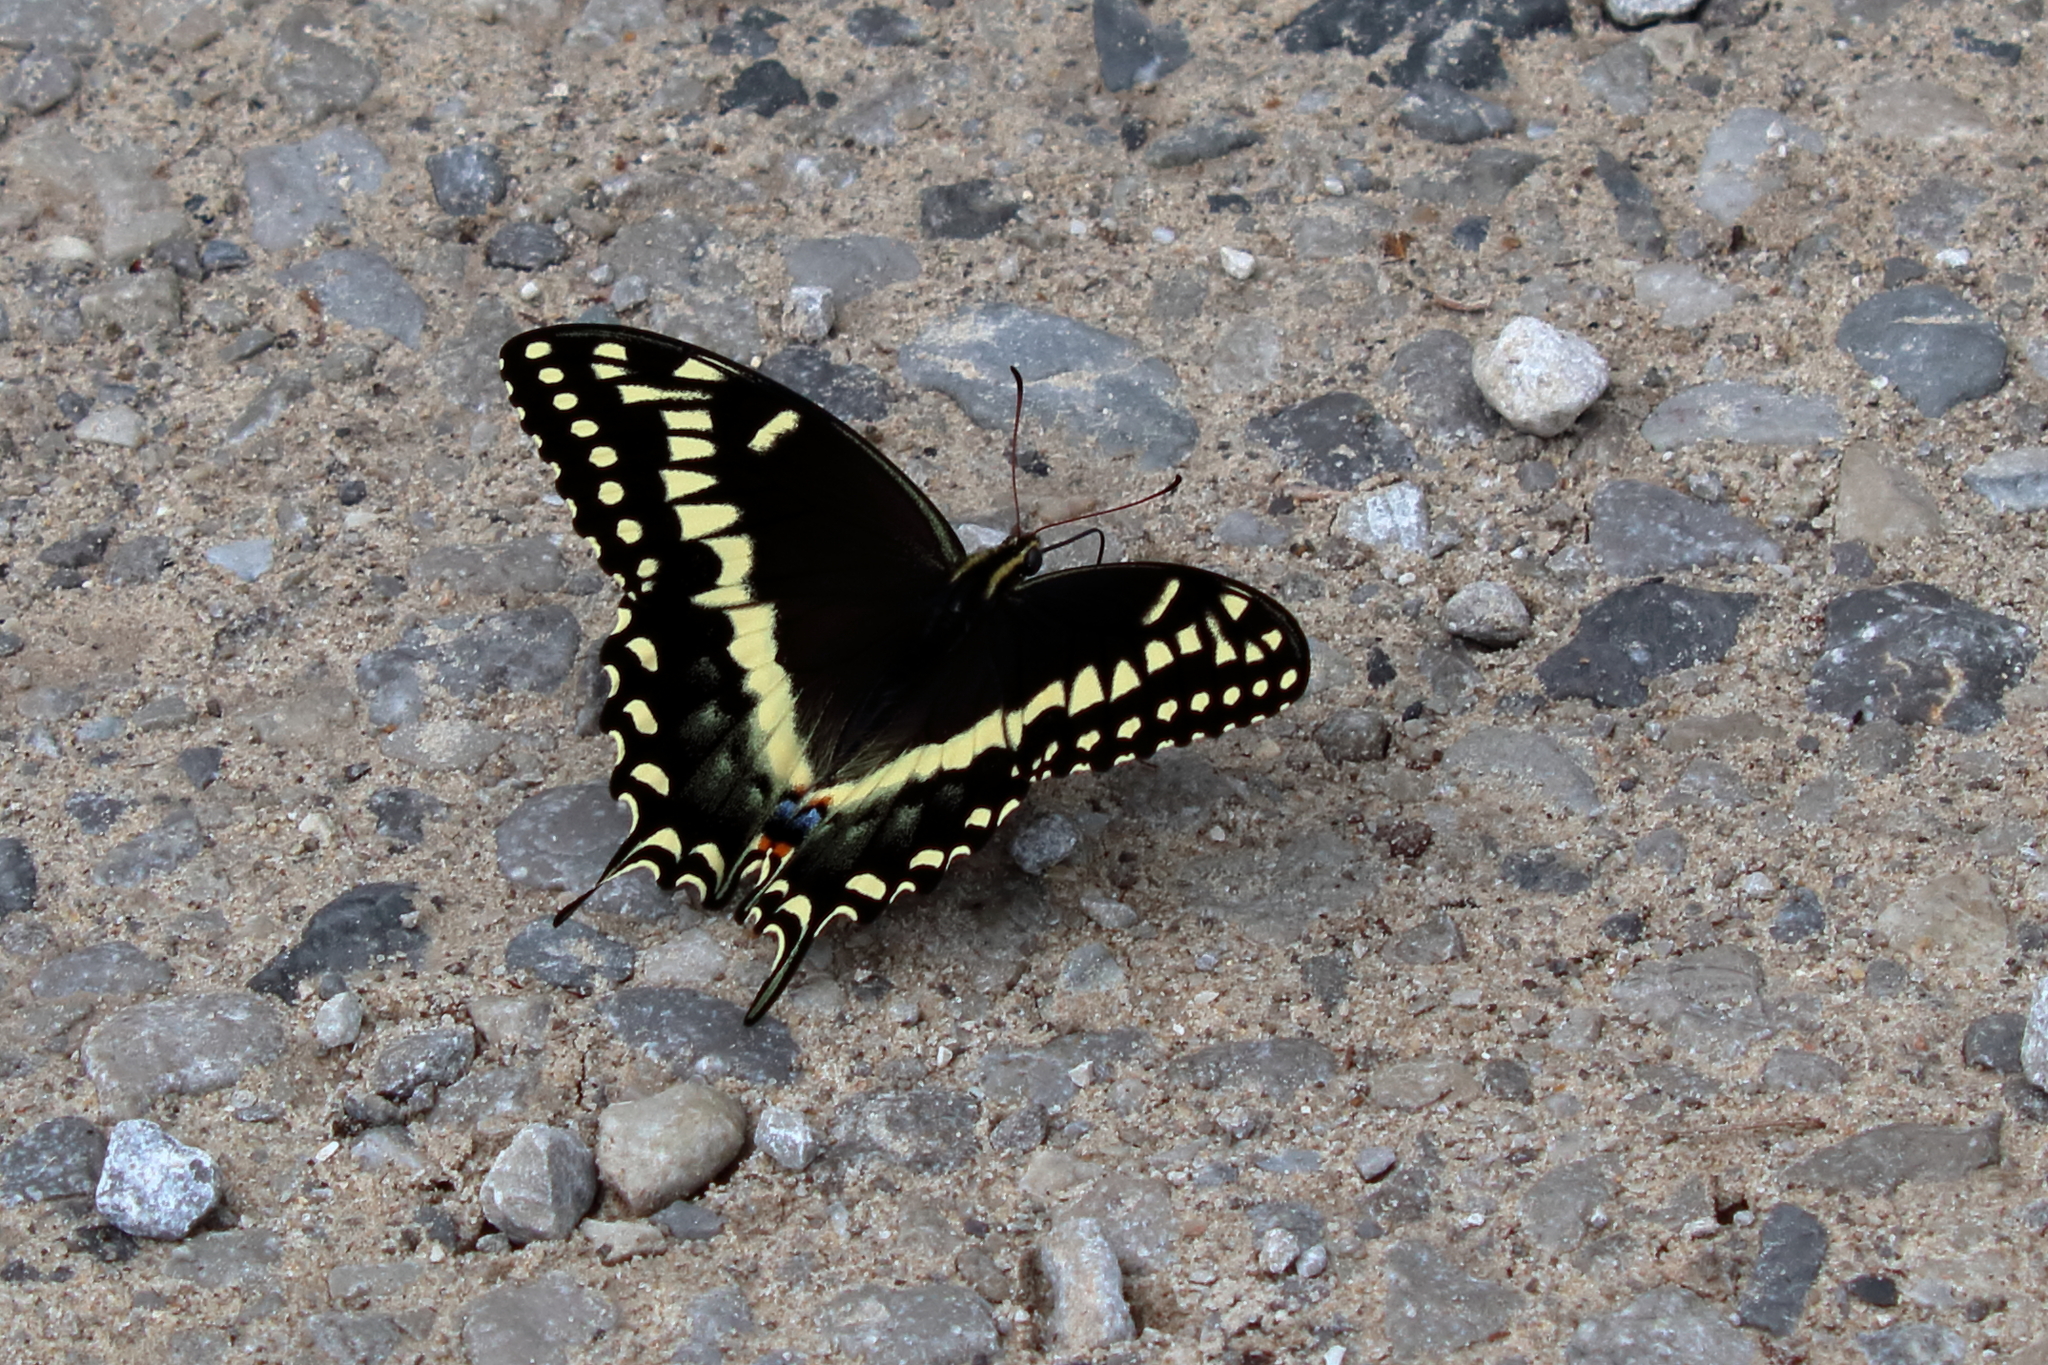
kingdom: Animalia
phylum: Arthropoda
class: Insecta
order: Lepidoptera
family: Papilionidae
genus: Papilio
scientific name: Papilio palamedes
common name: Palamedes swallowtail
